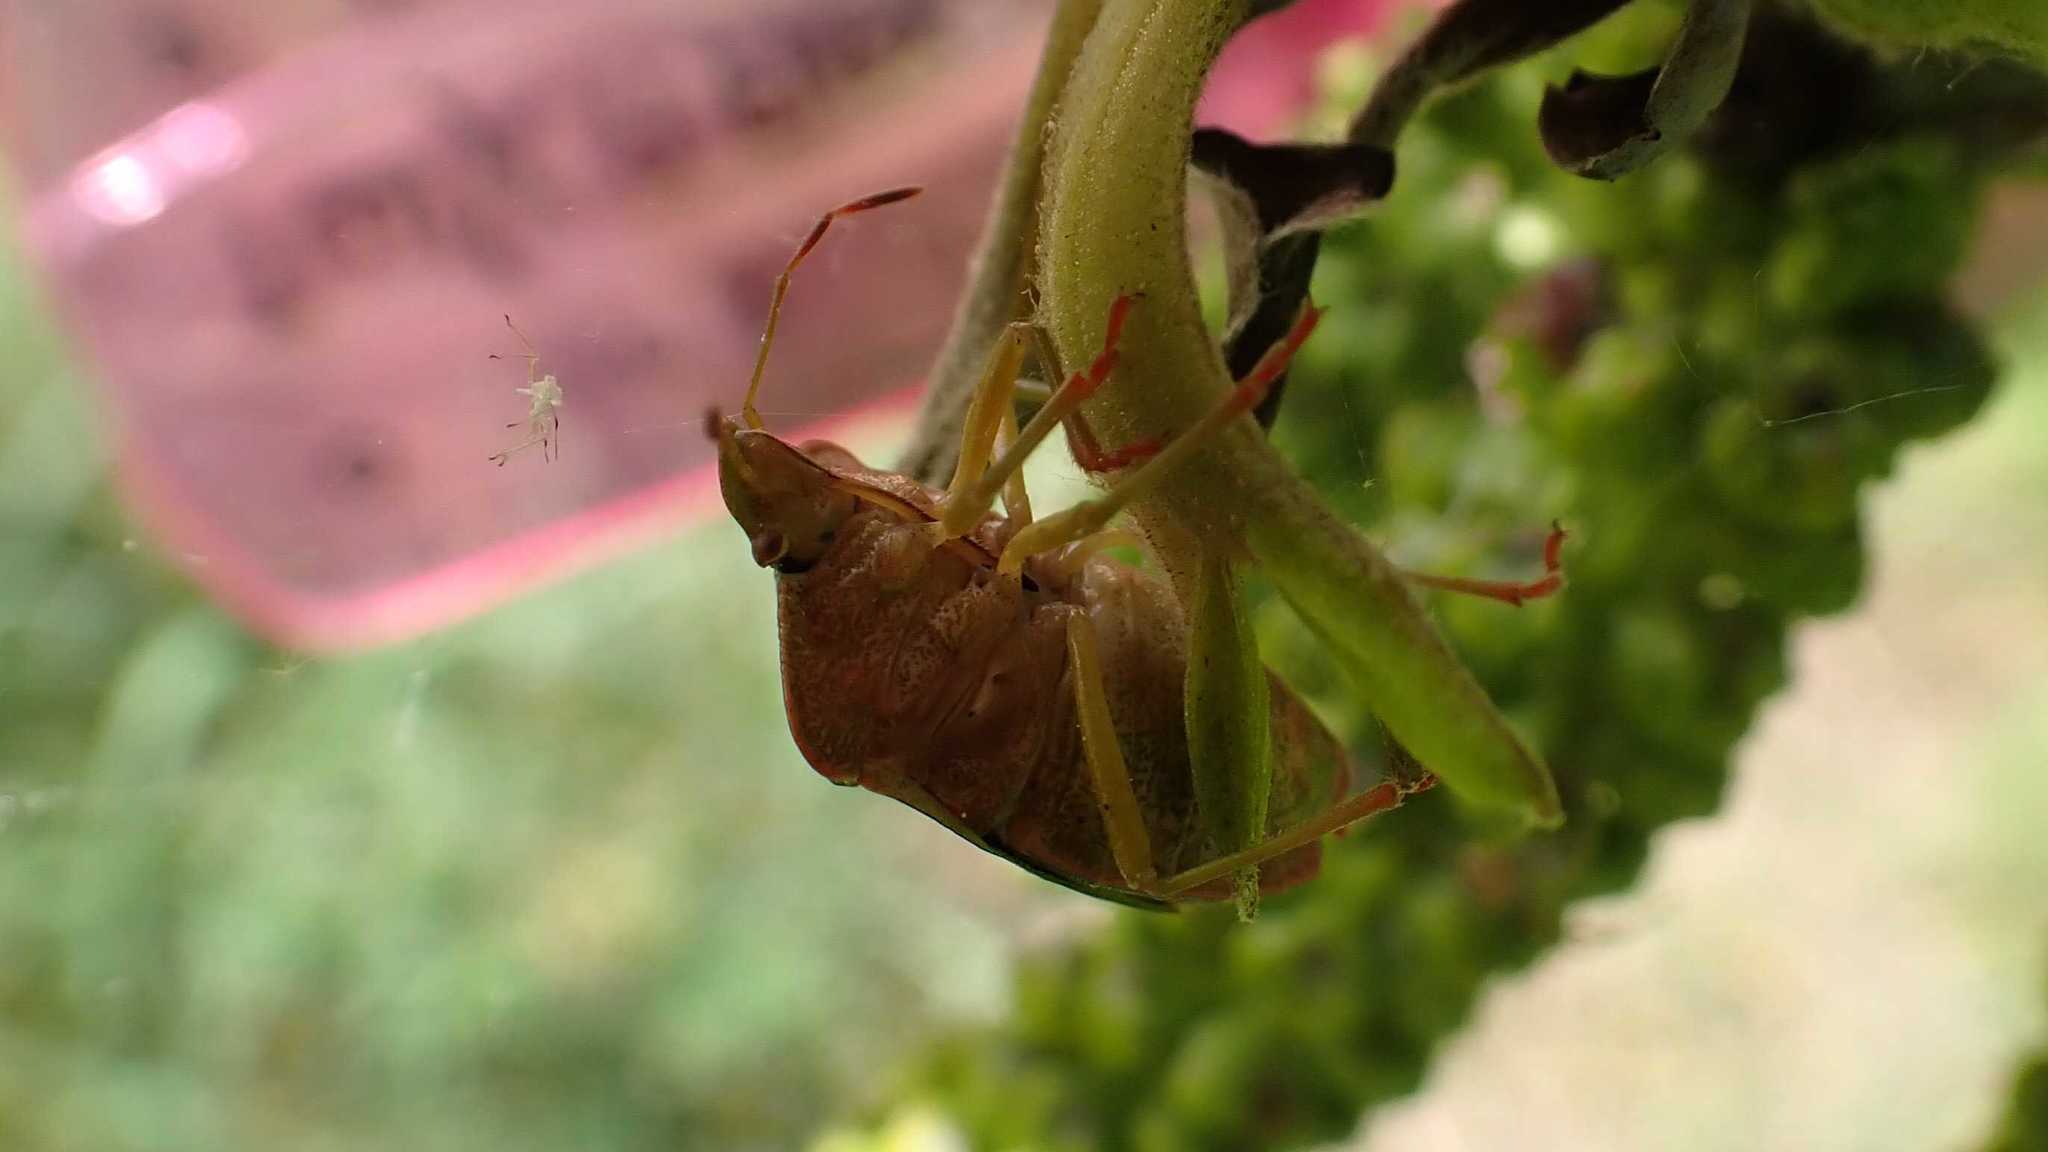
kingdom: Animalia
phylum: Arthropoda
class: Insecta
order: Hemiptera
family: Pentatomidae
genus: Palomena
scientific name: Palomena prasina
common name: Green shieldbug
